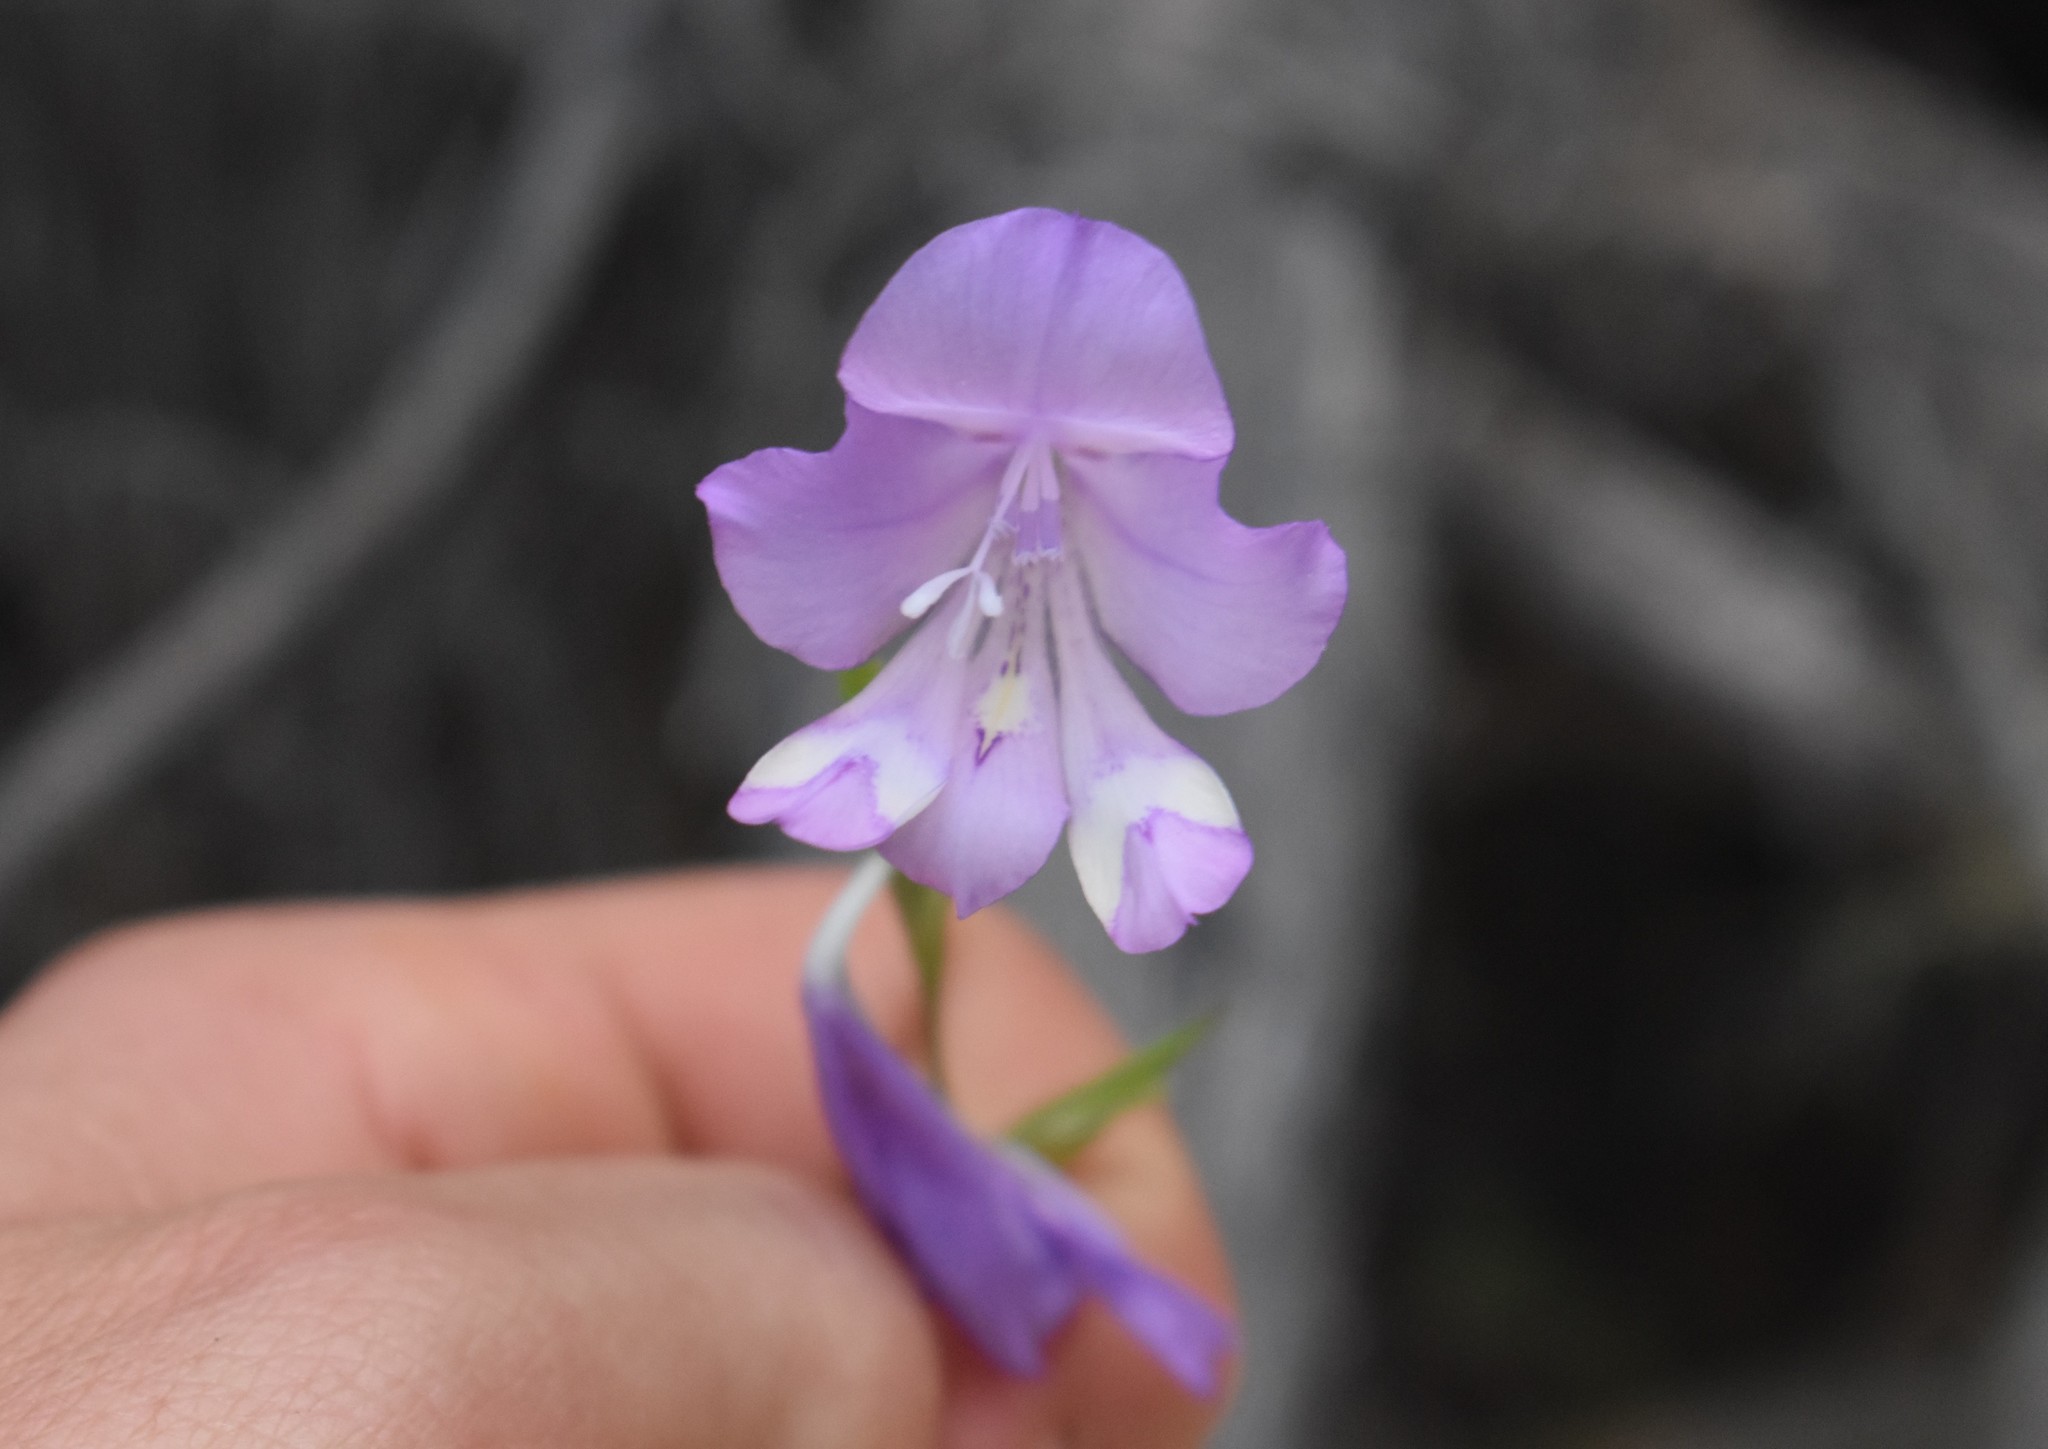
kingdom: Plantae
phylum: Tracheophyta
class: Liliopsida
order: Asparagales
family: Iridaceae
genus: Gladiolus
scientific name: Gladiolus rogersii
